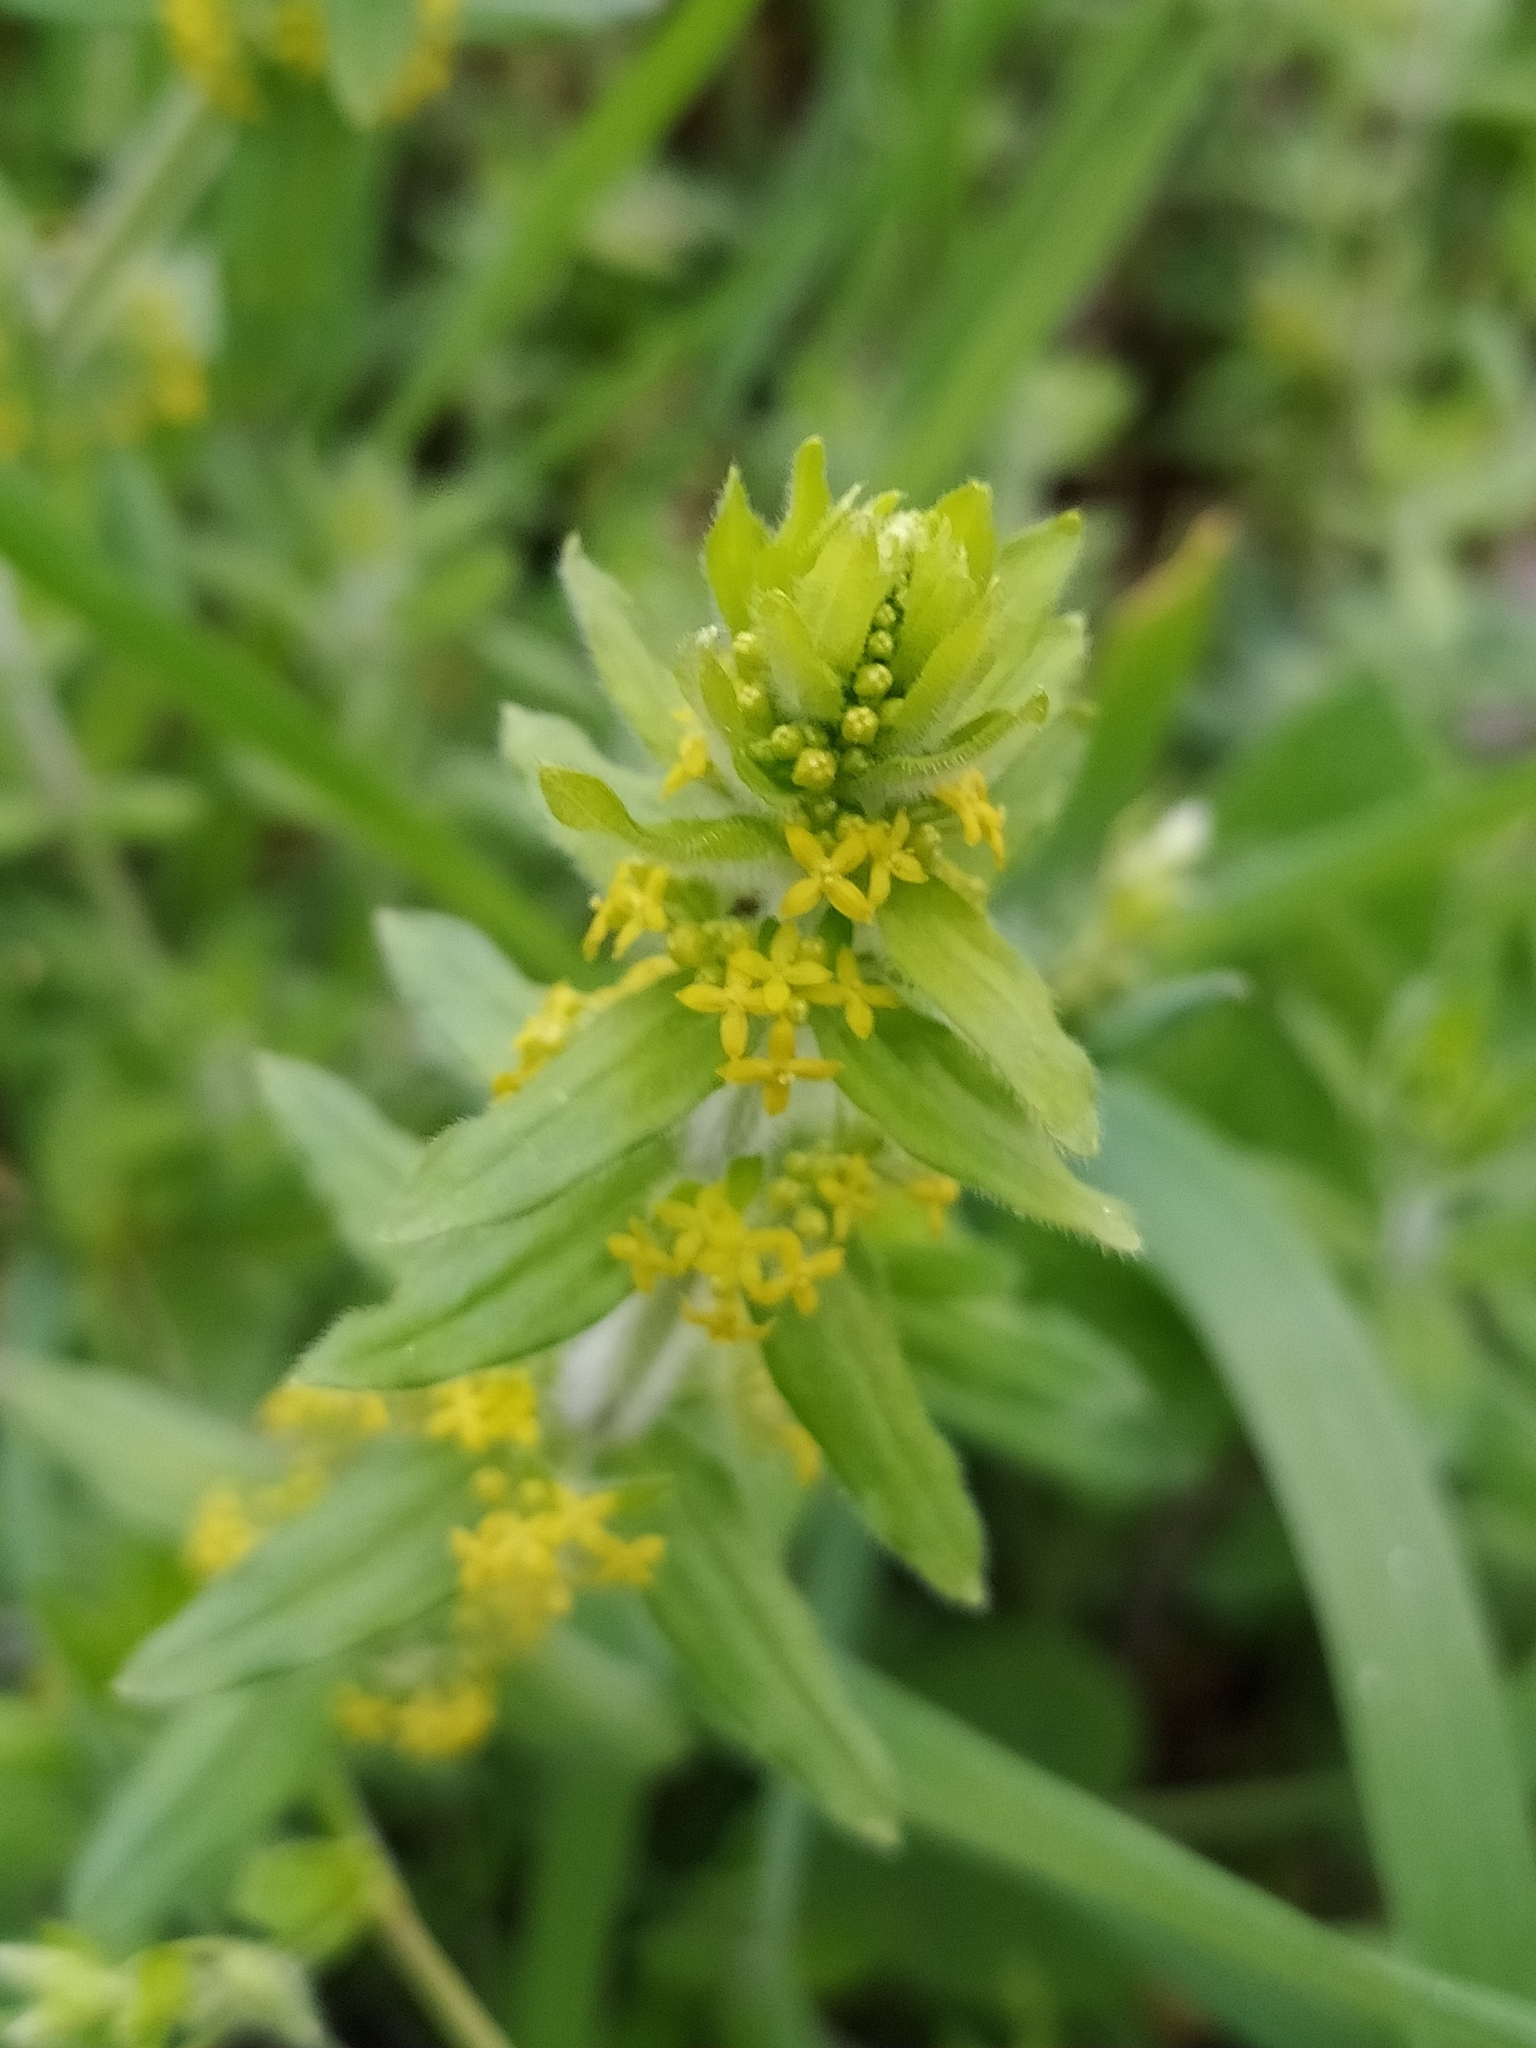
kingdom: Plantae
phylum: Tracheophyta
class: Magnoliopsida
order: Gentianales
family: Rubiaceae
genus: Cruciata
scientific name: Cruciata laevipes
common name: Crosswort
